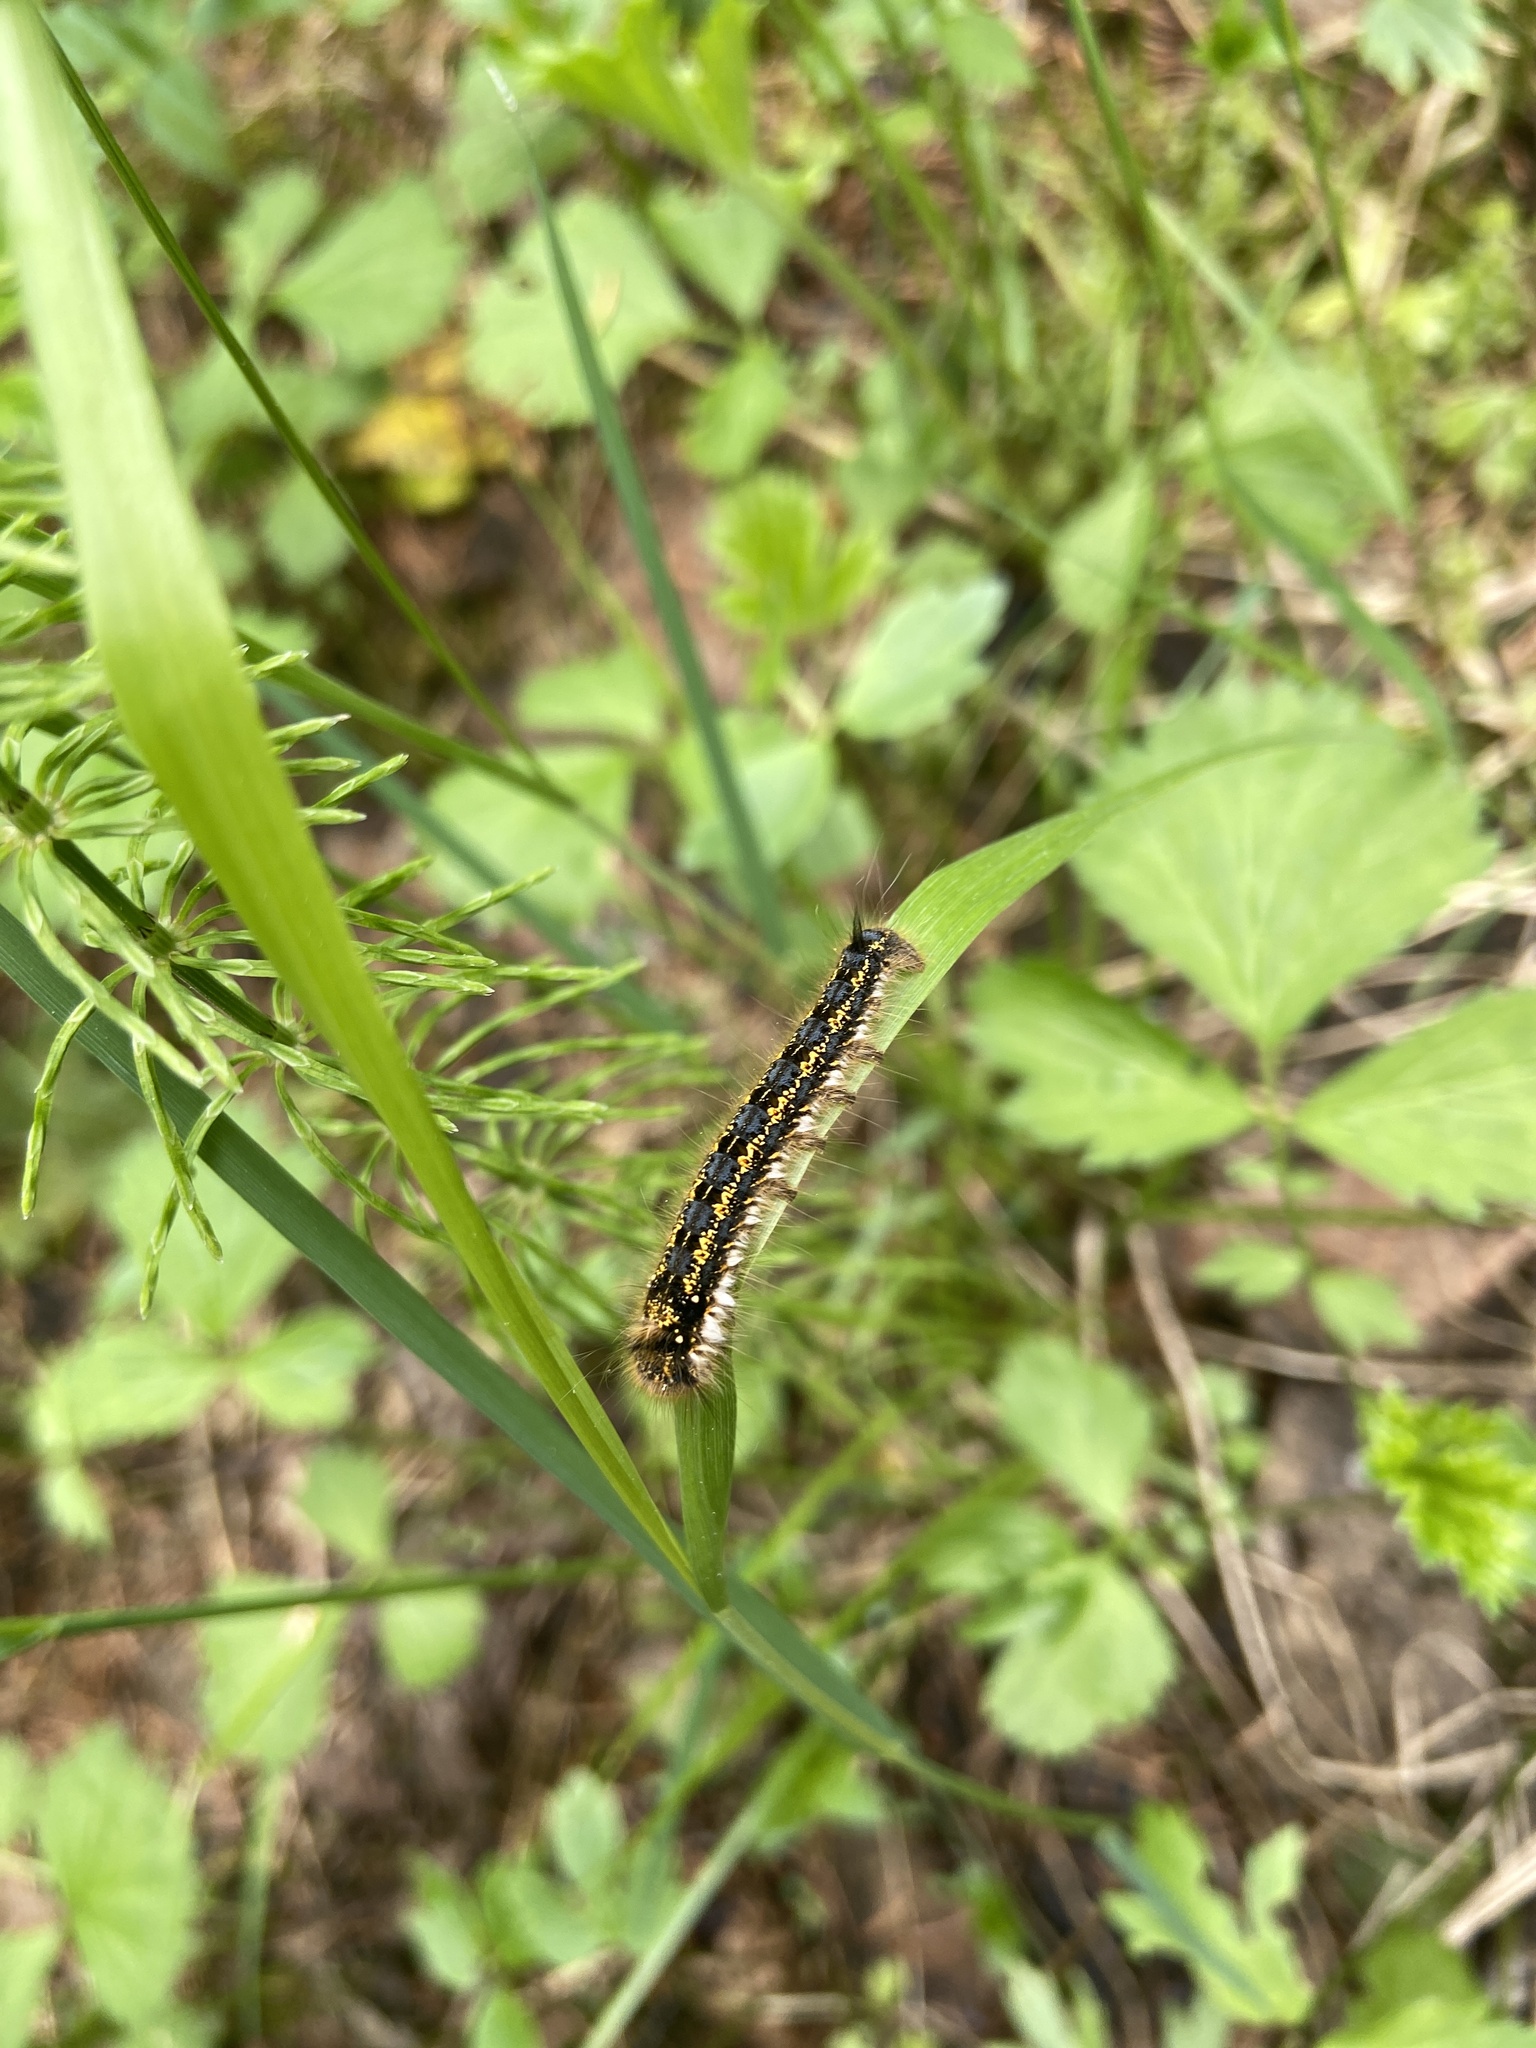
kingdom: Animalia
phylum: Arthropoda
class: Insecta
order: Lepidoptera
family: Lasiocampidae
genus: Euthrix
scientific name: Euthrix potatoria
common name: Drinker
